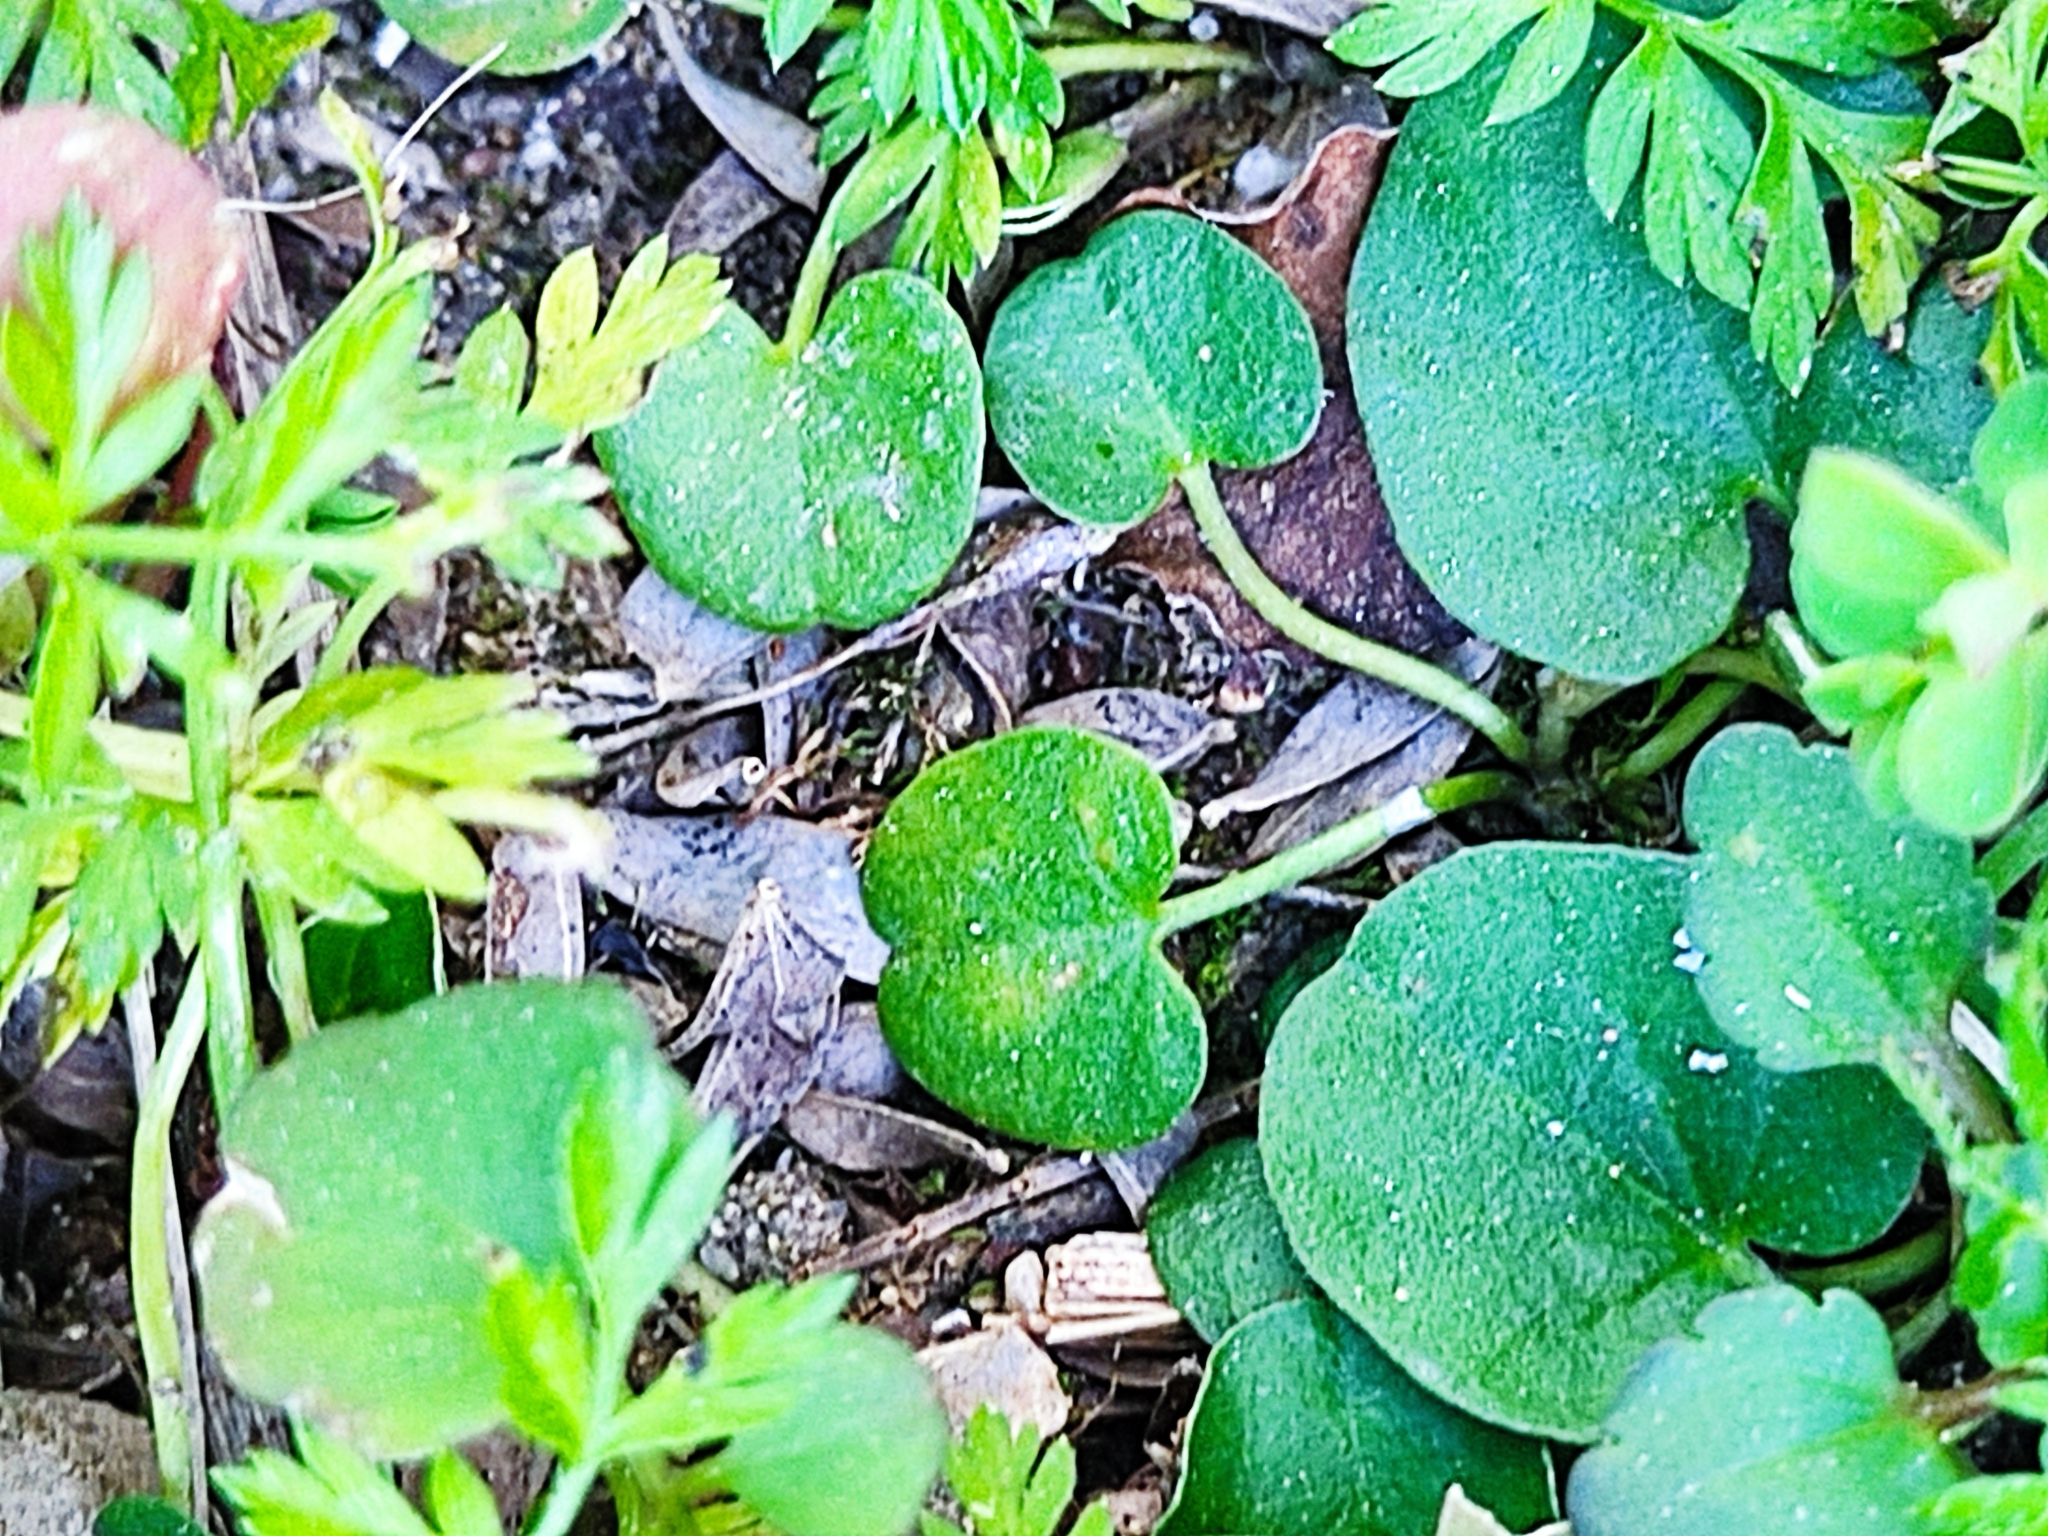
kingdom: Plantae
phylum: Tracheophyta
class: Magnoliopsida
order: Solanales
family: Convolvulaceae
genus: Dichondra
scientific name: Dichondra repens
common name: Kidneyweed
